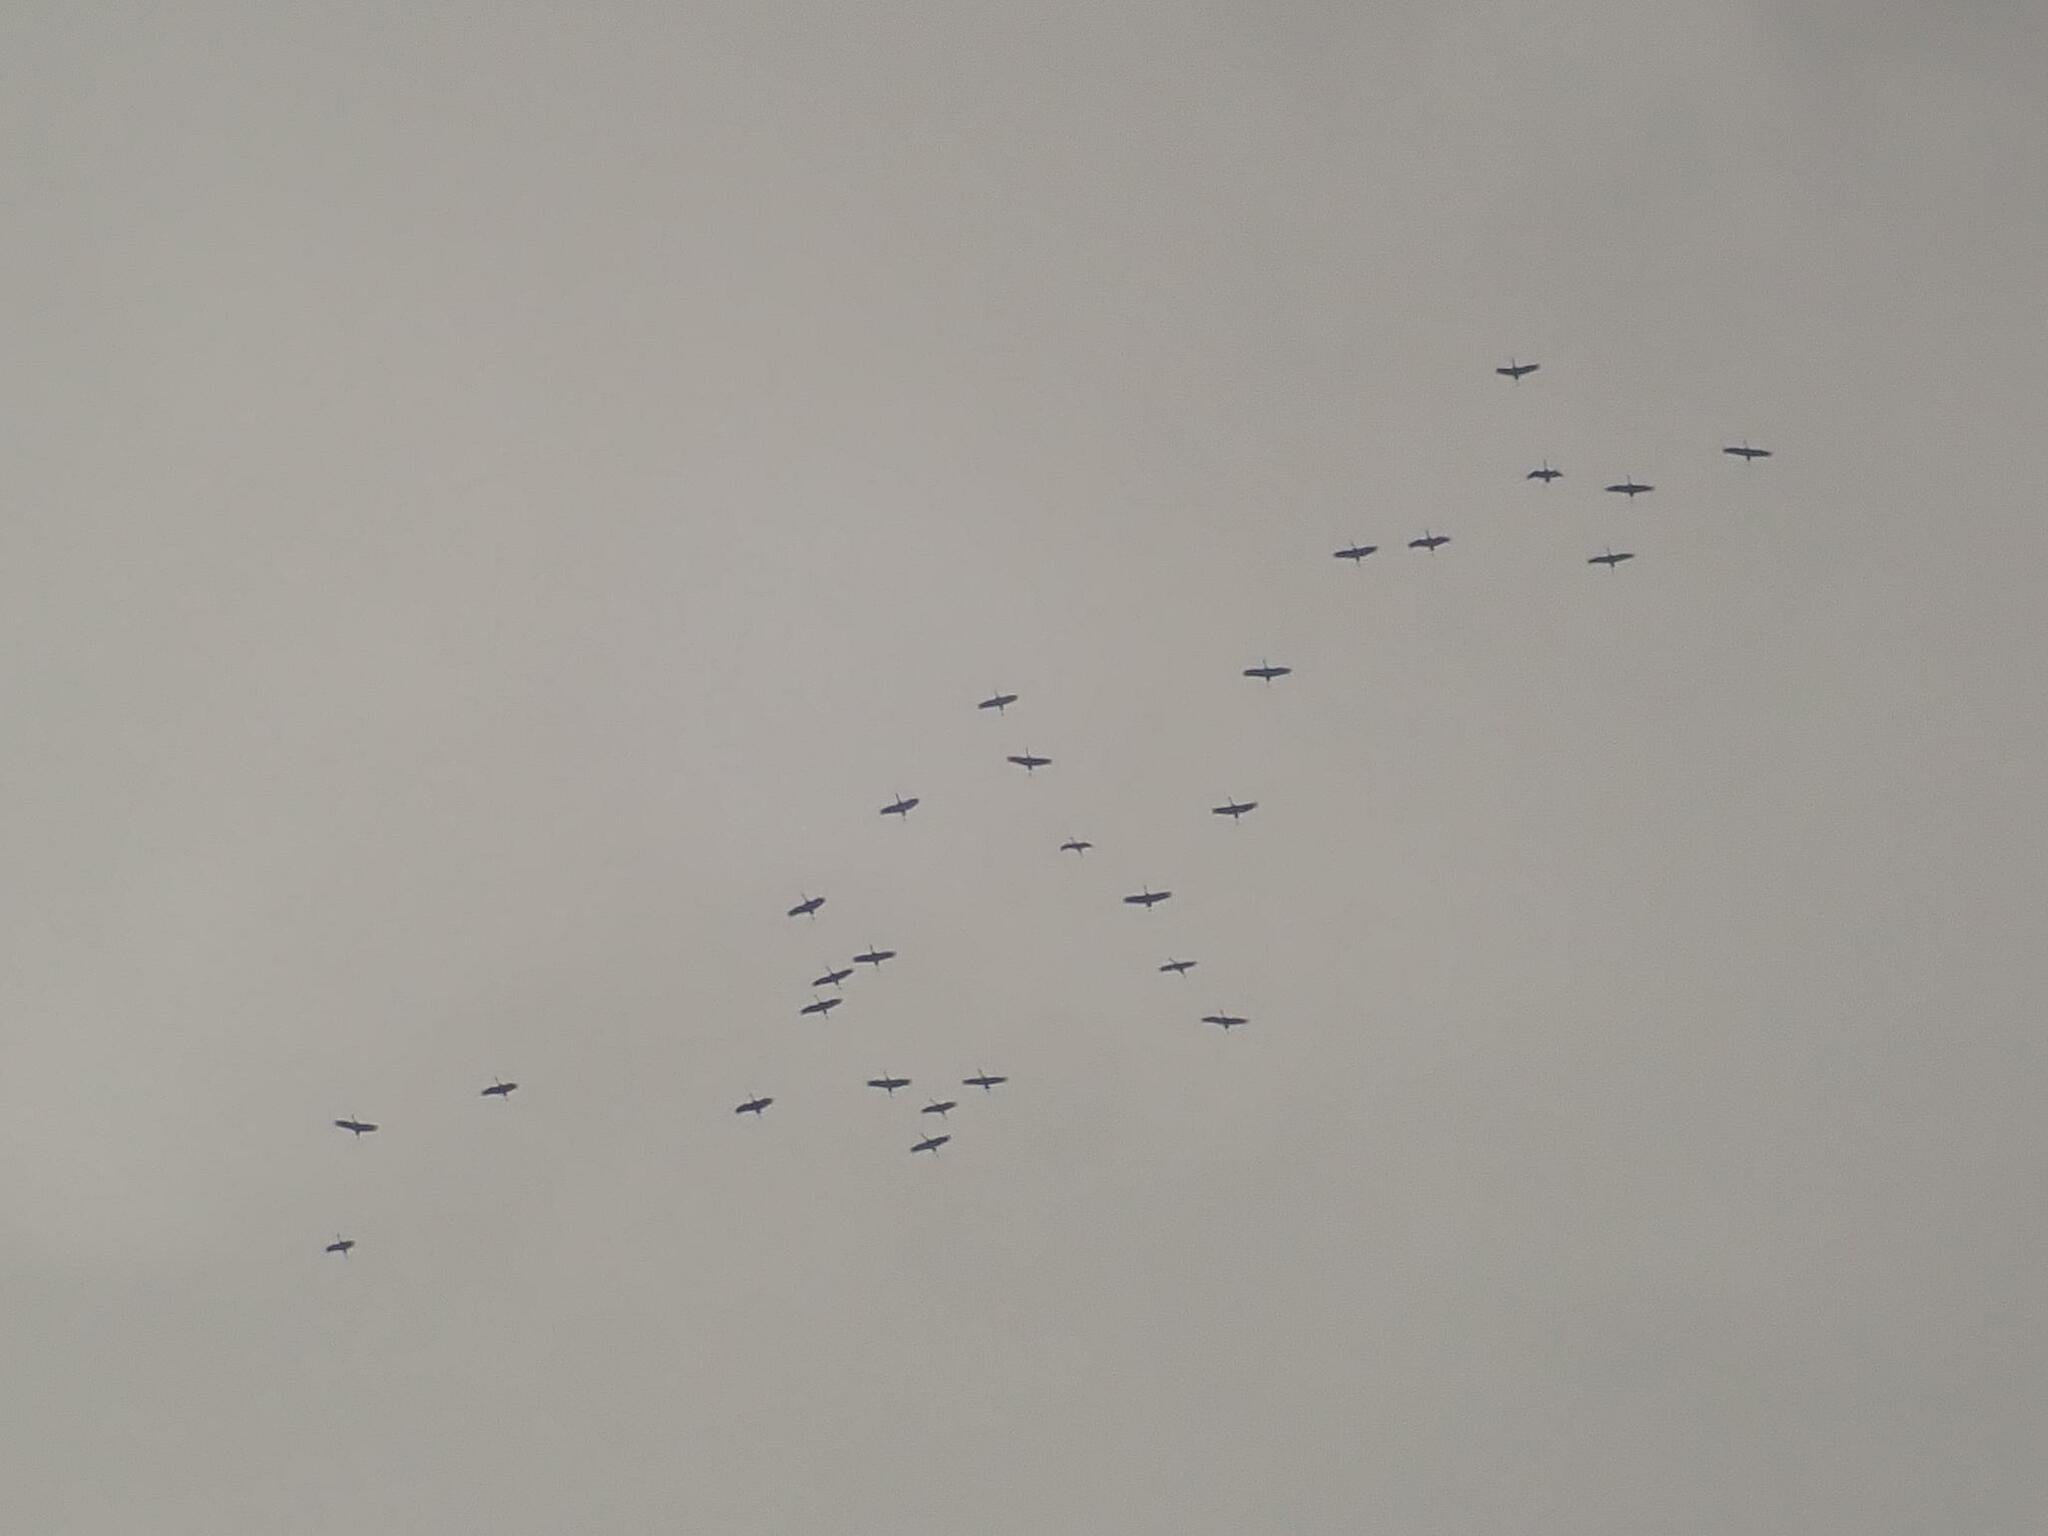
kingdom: Animalia
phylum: Chordata
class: Aves
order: Gruiformes
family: Gruidae
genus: Grus
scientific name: Grus grus
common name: Common crane
